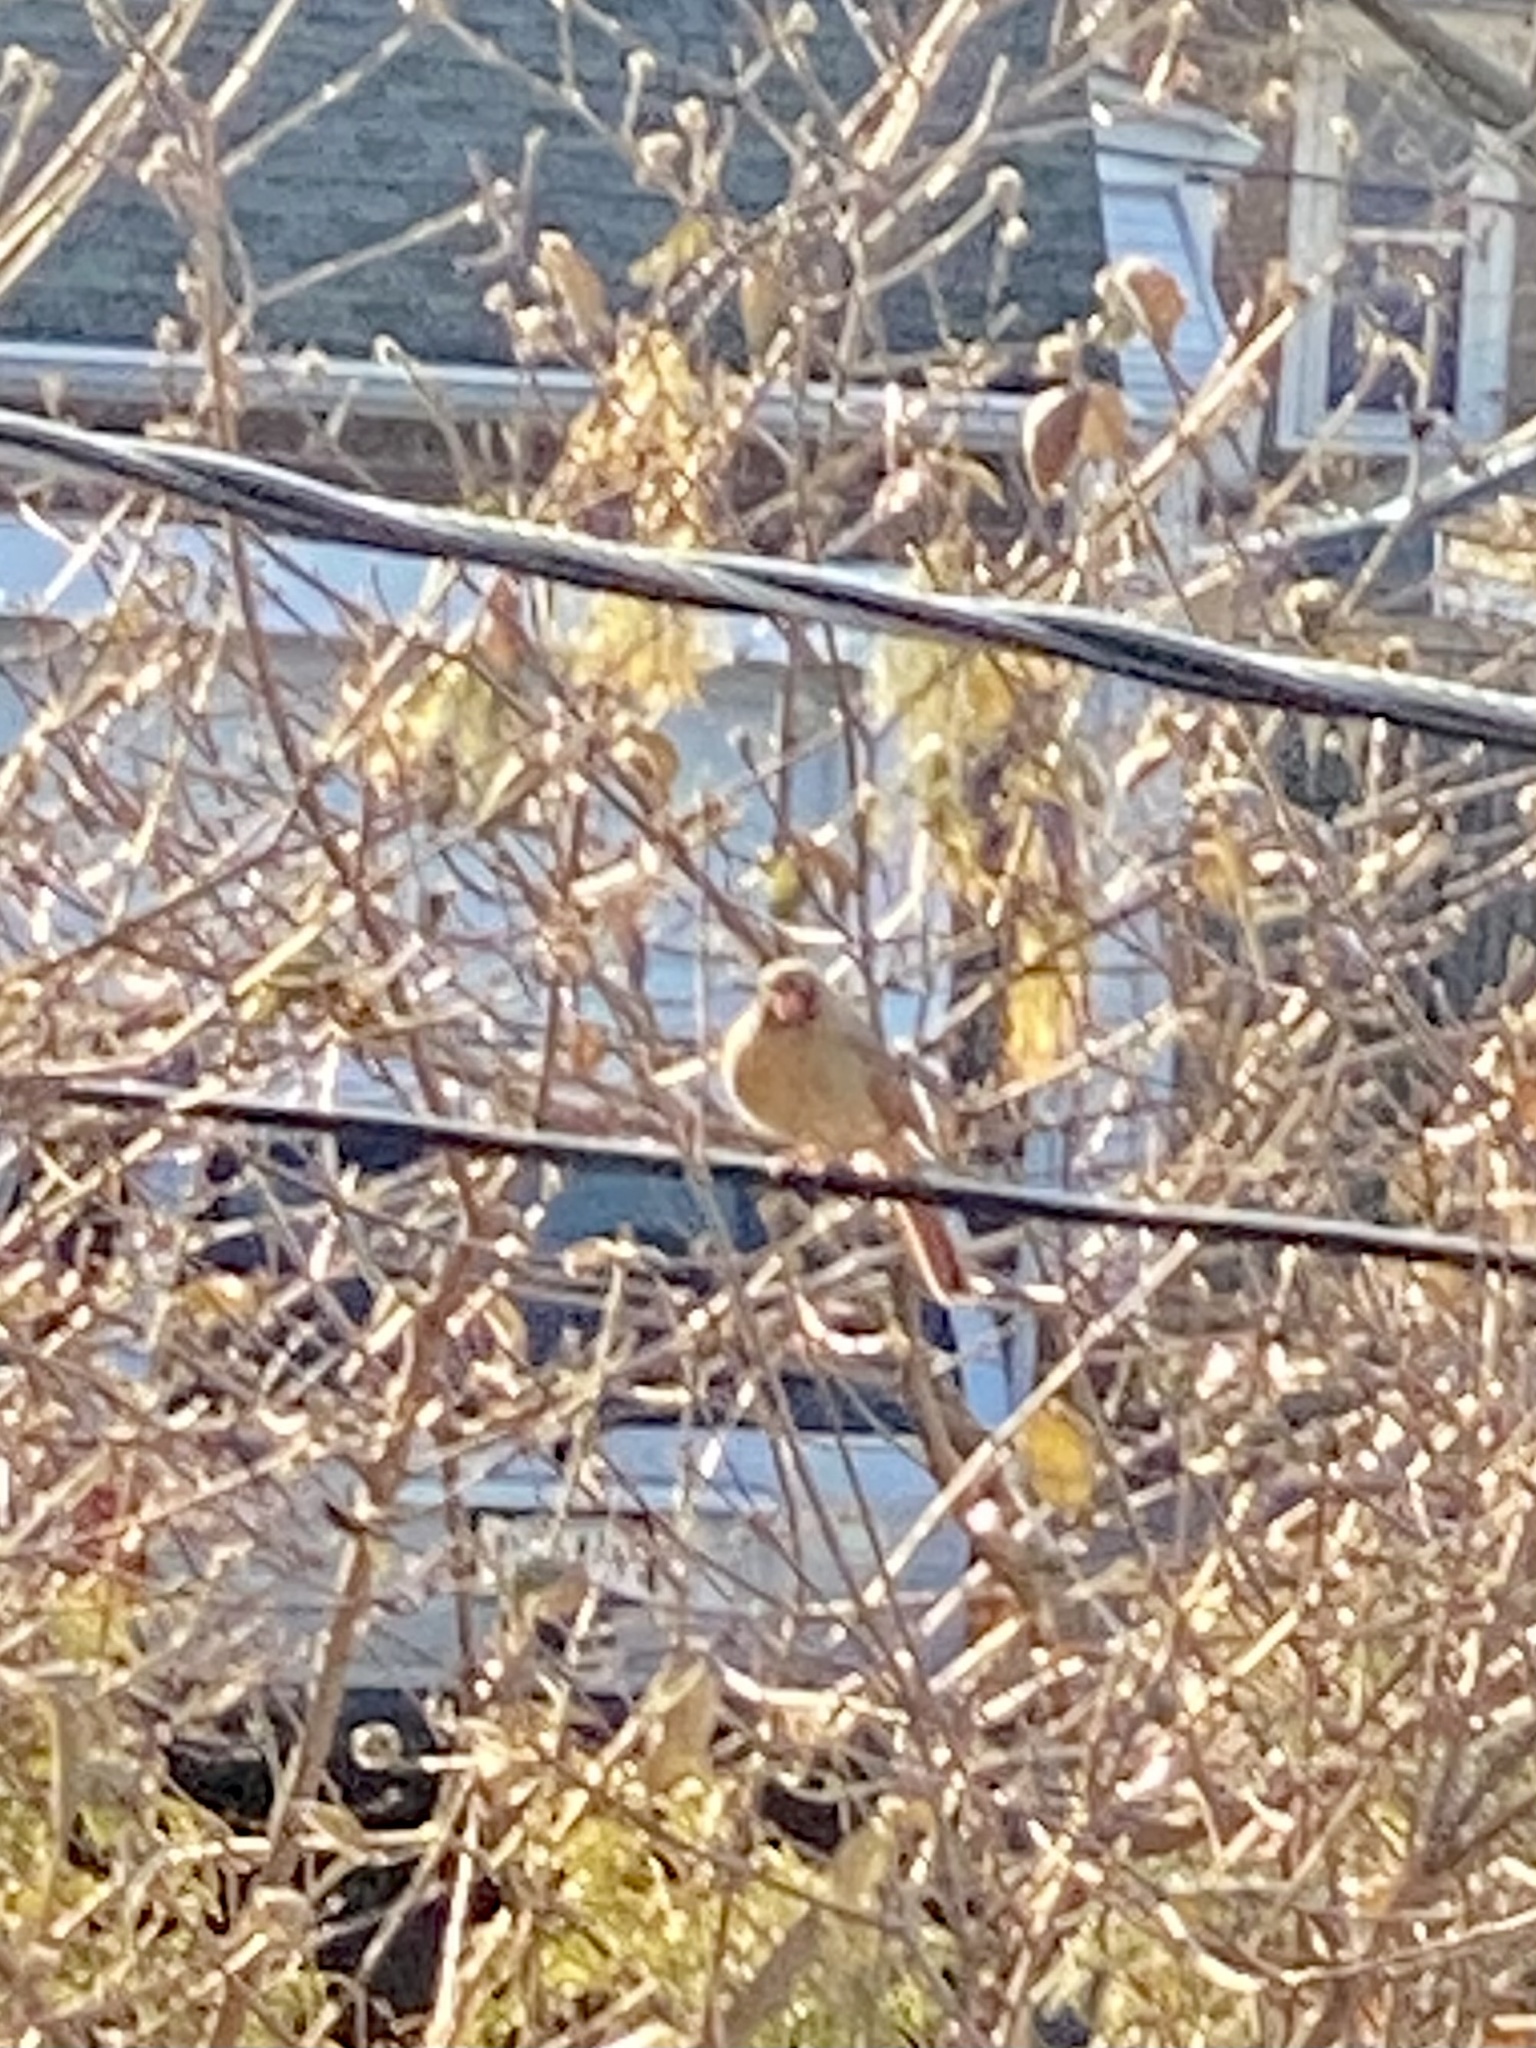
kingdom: Animalia
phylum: Chordata
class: Aves
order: Passeriformes
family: Cardinalidae
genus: Cardinalis
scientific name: Cardinalis cardinalis
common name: Northern cardinal
